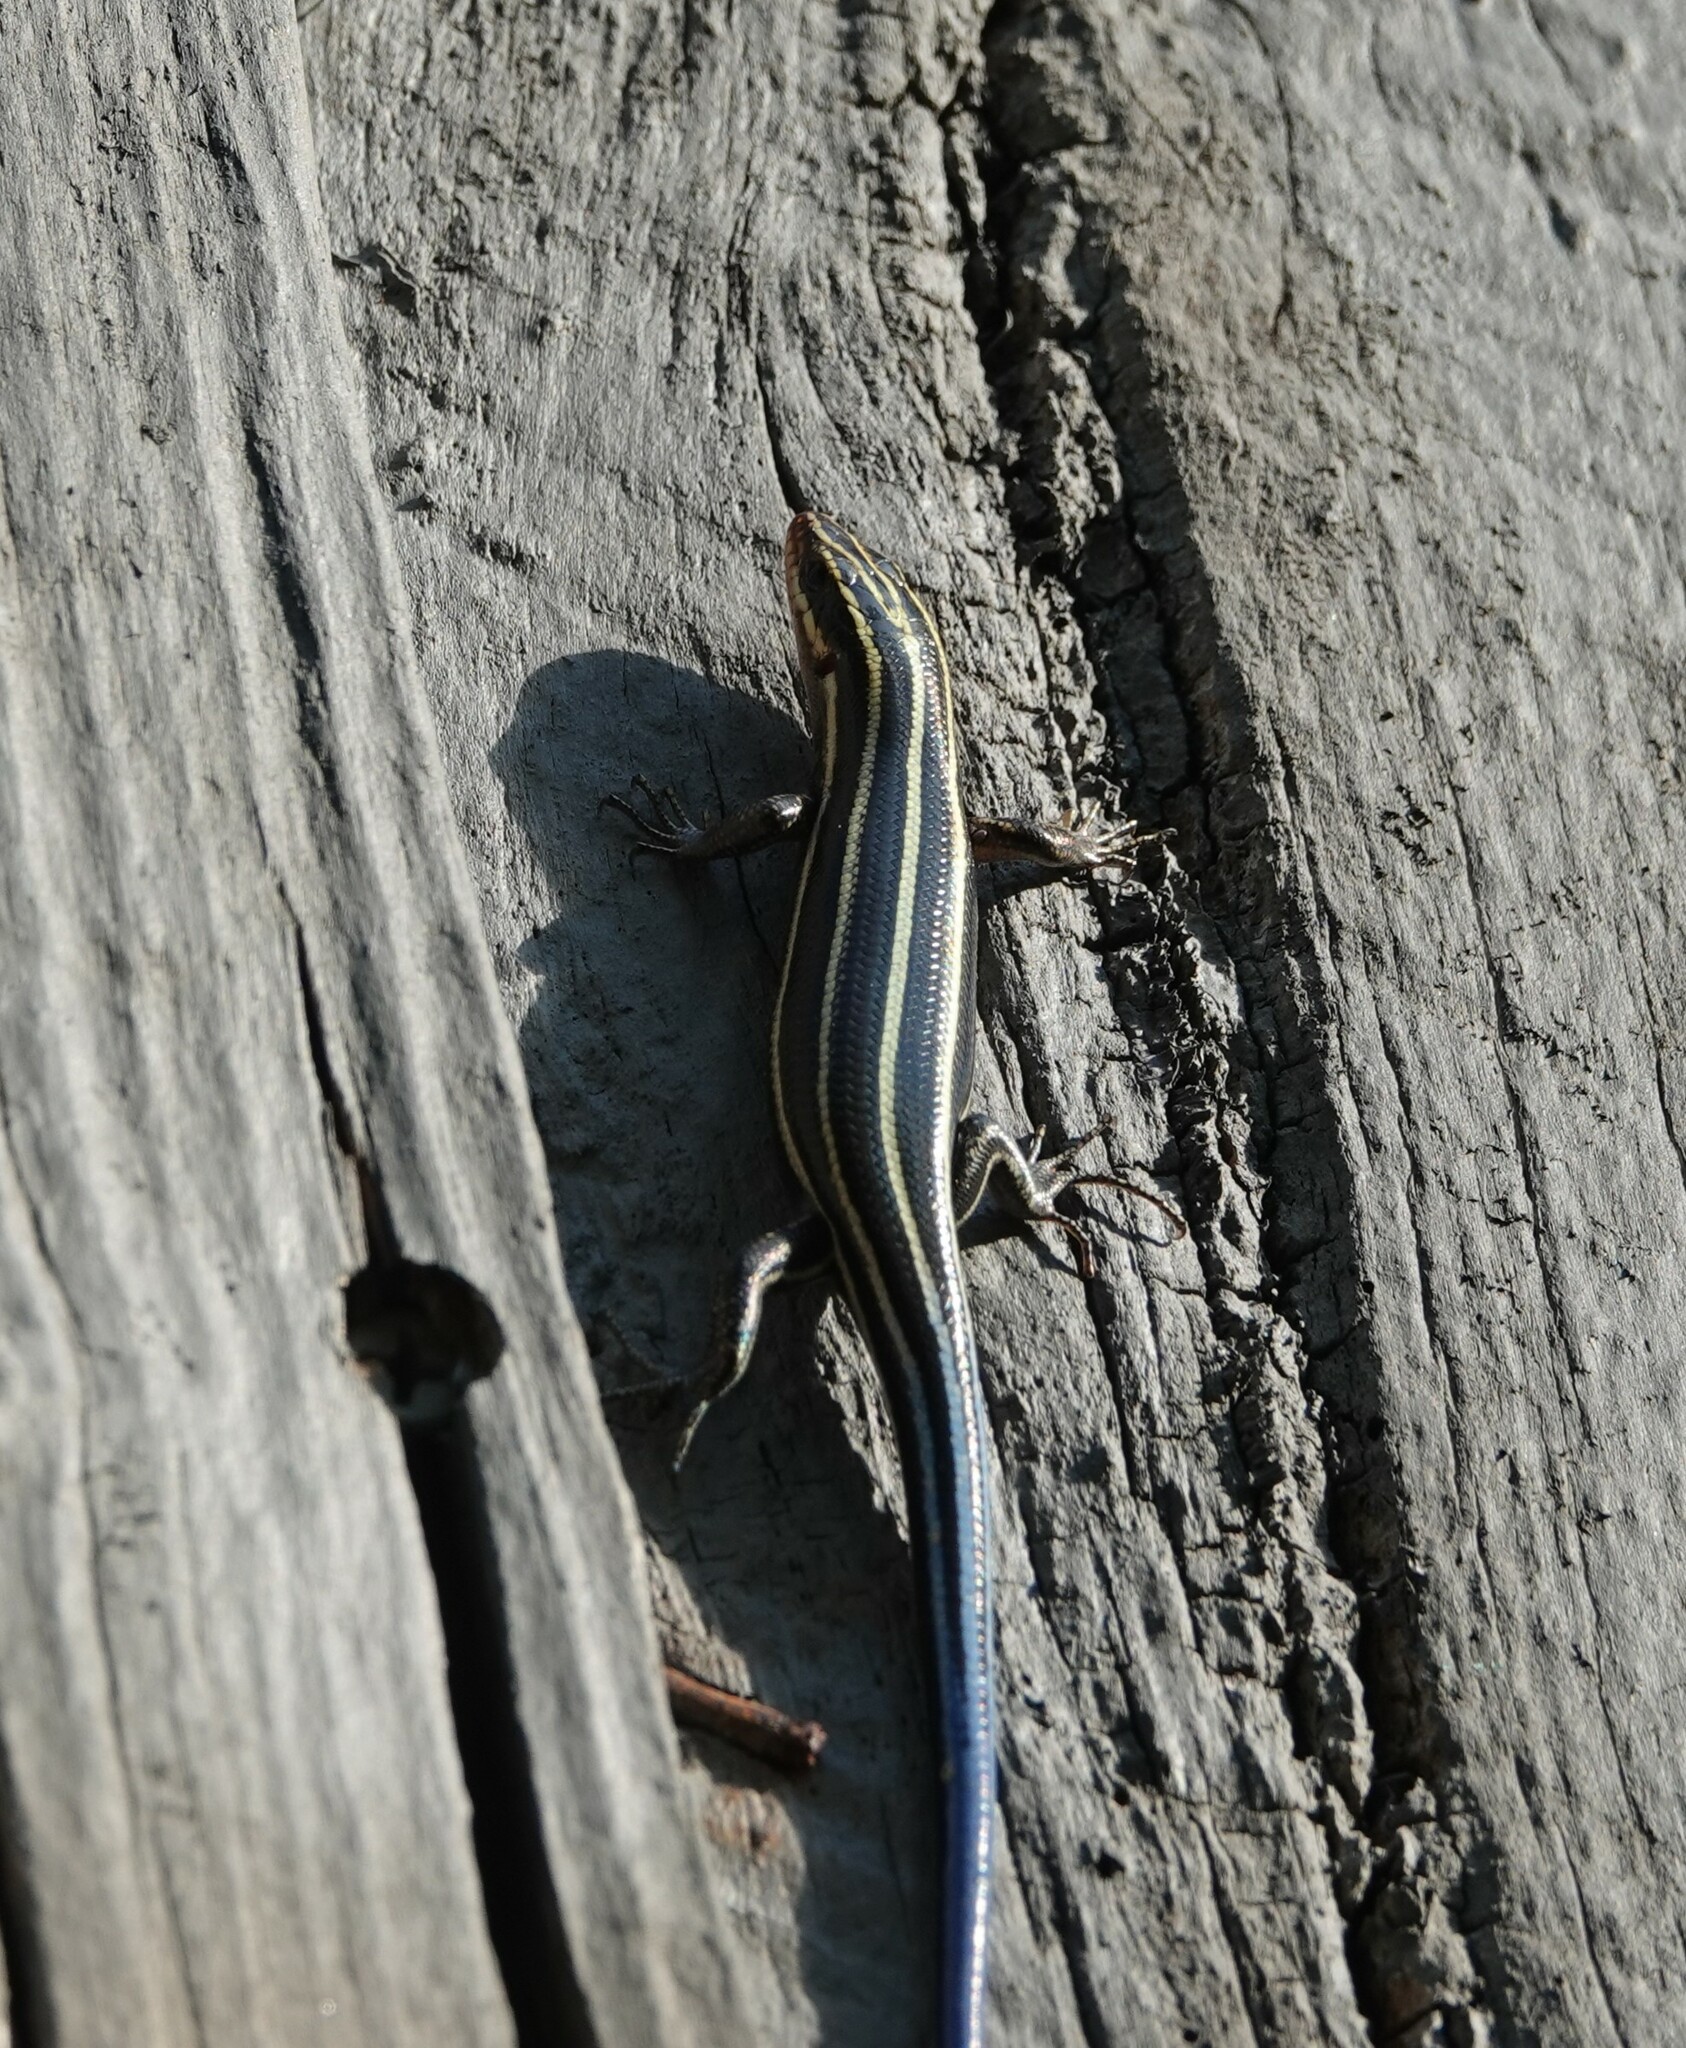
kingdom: Animalia
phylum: Chordata
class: Squamata
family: Scincidae
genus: Plestiodon
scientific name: Plestiodon fasciatus
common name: Five-lined skink
